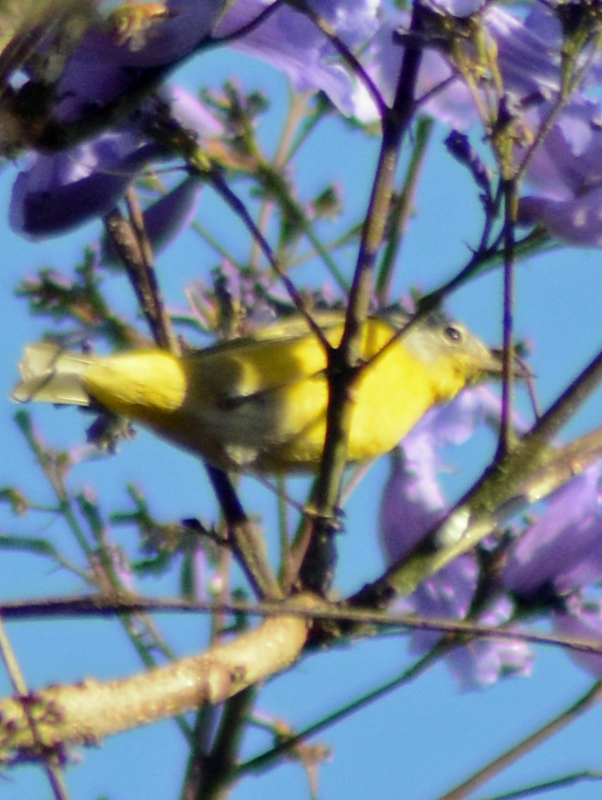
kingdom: Animalia
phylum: Chordata
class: Aves
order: Passeriformes
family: Parulidae
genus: Leiothlypis
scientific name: Leiothlypis ruficapilla
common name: Nashville warbler
